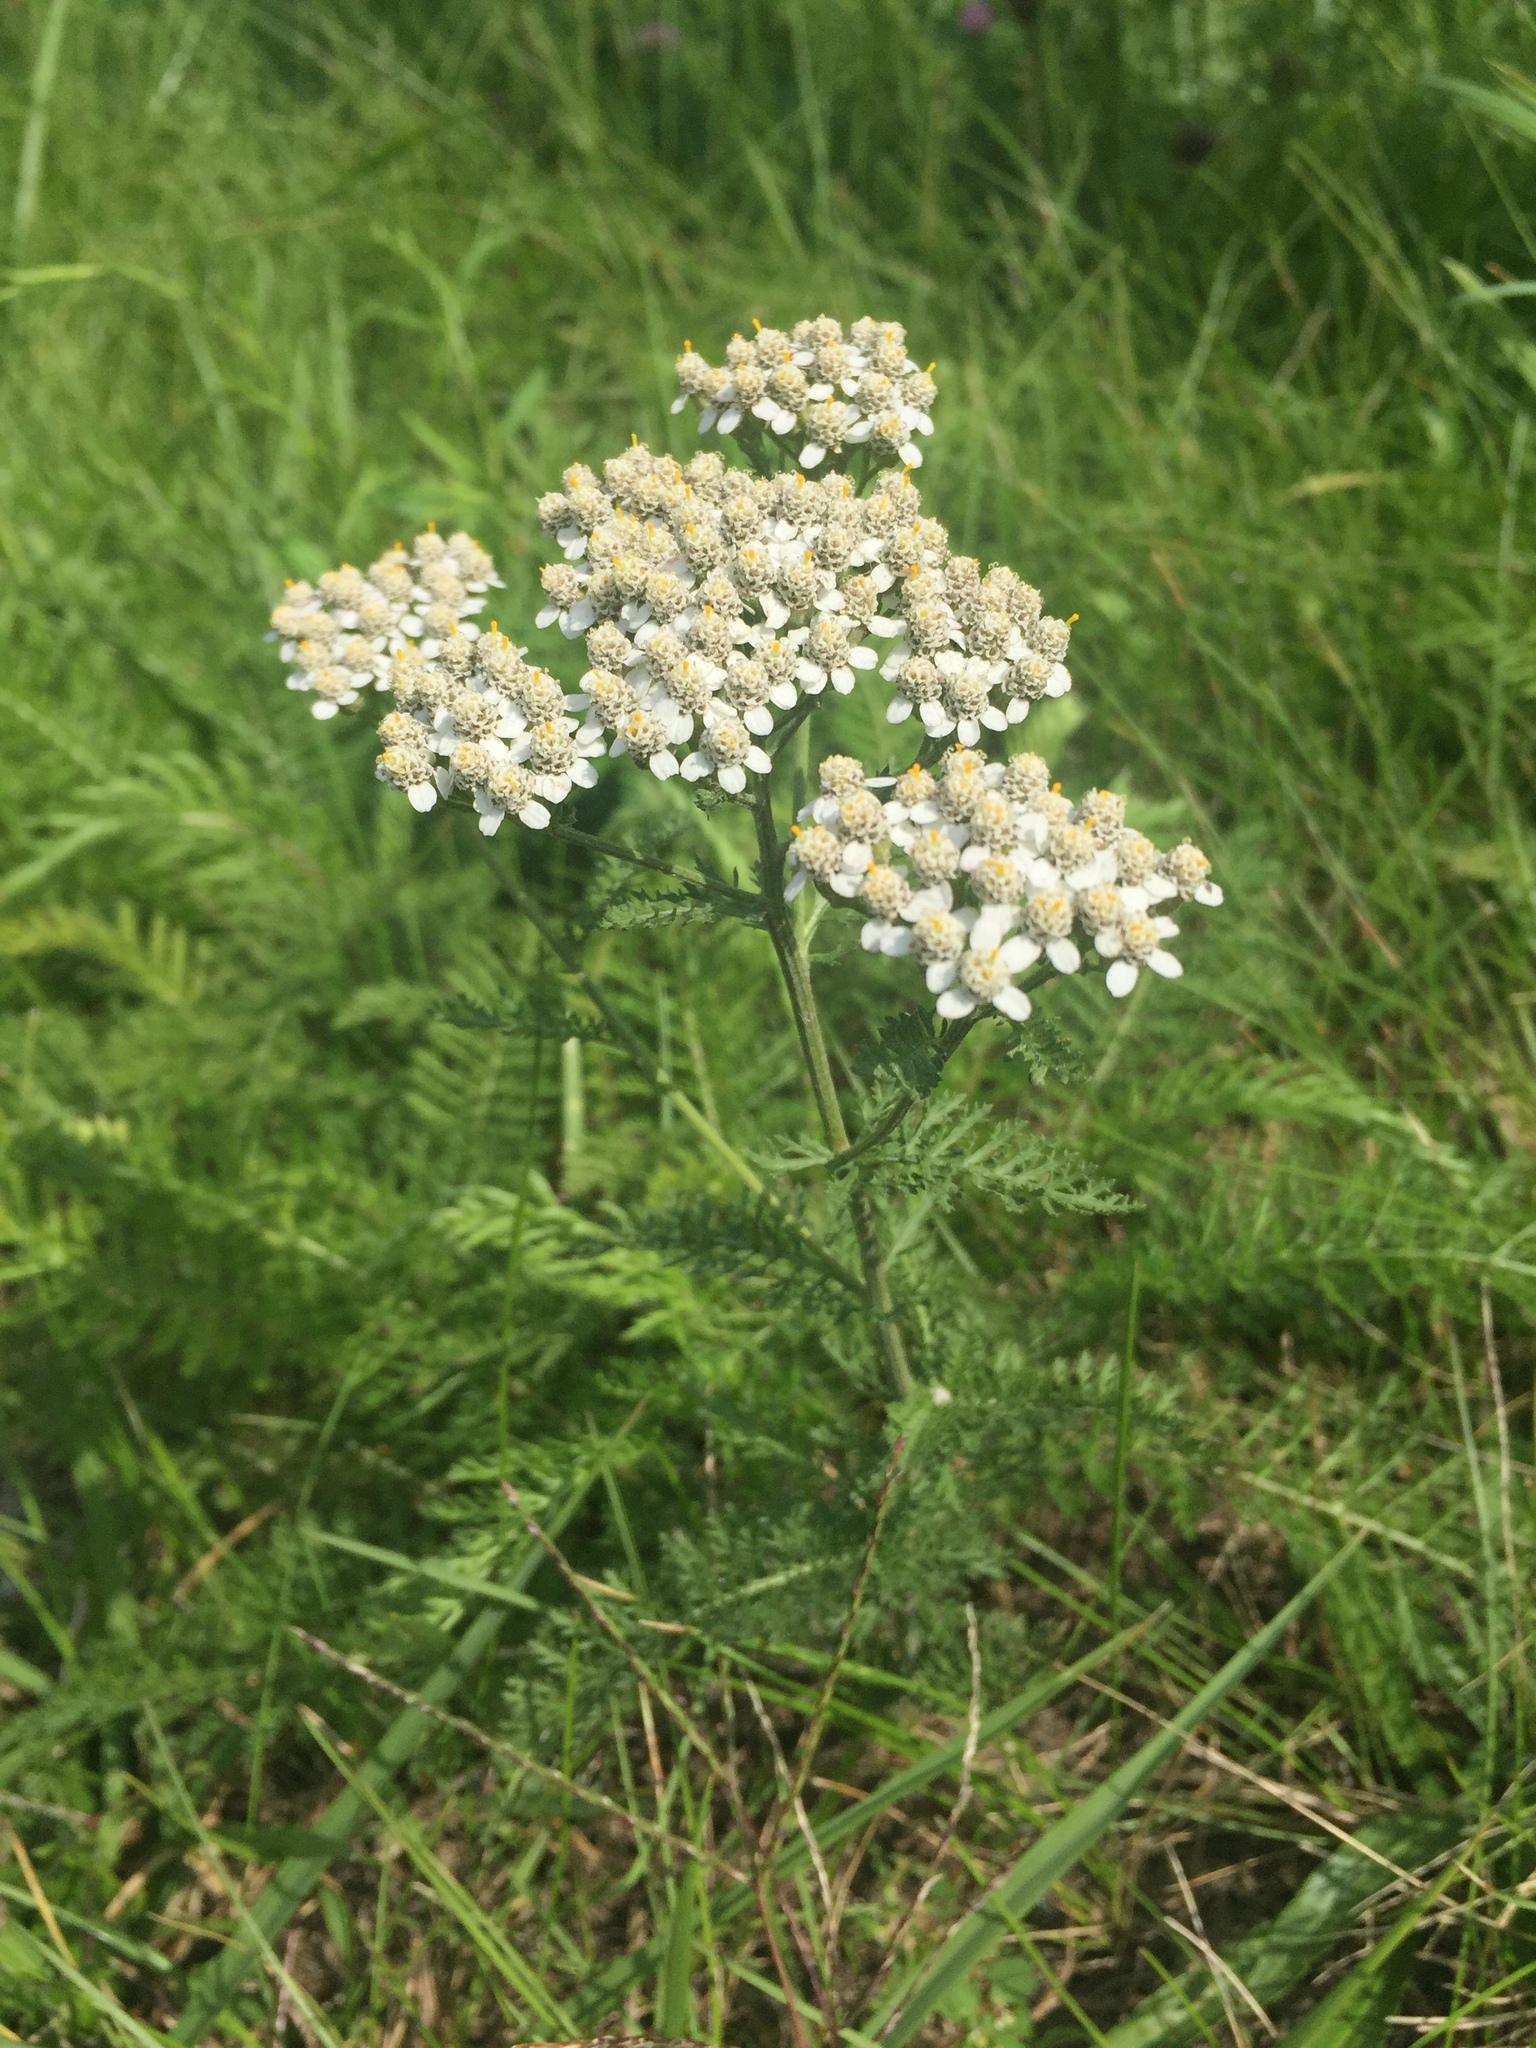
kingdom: Plantae
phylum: Tracheophyta
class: Magnoliopsida
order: Asterales
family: Asteraceae
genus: Achillea
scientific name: Achillea millefolium
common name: Yarrow
